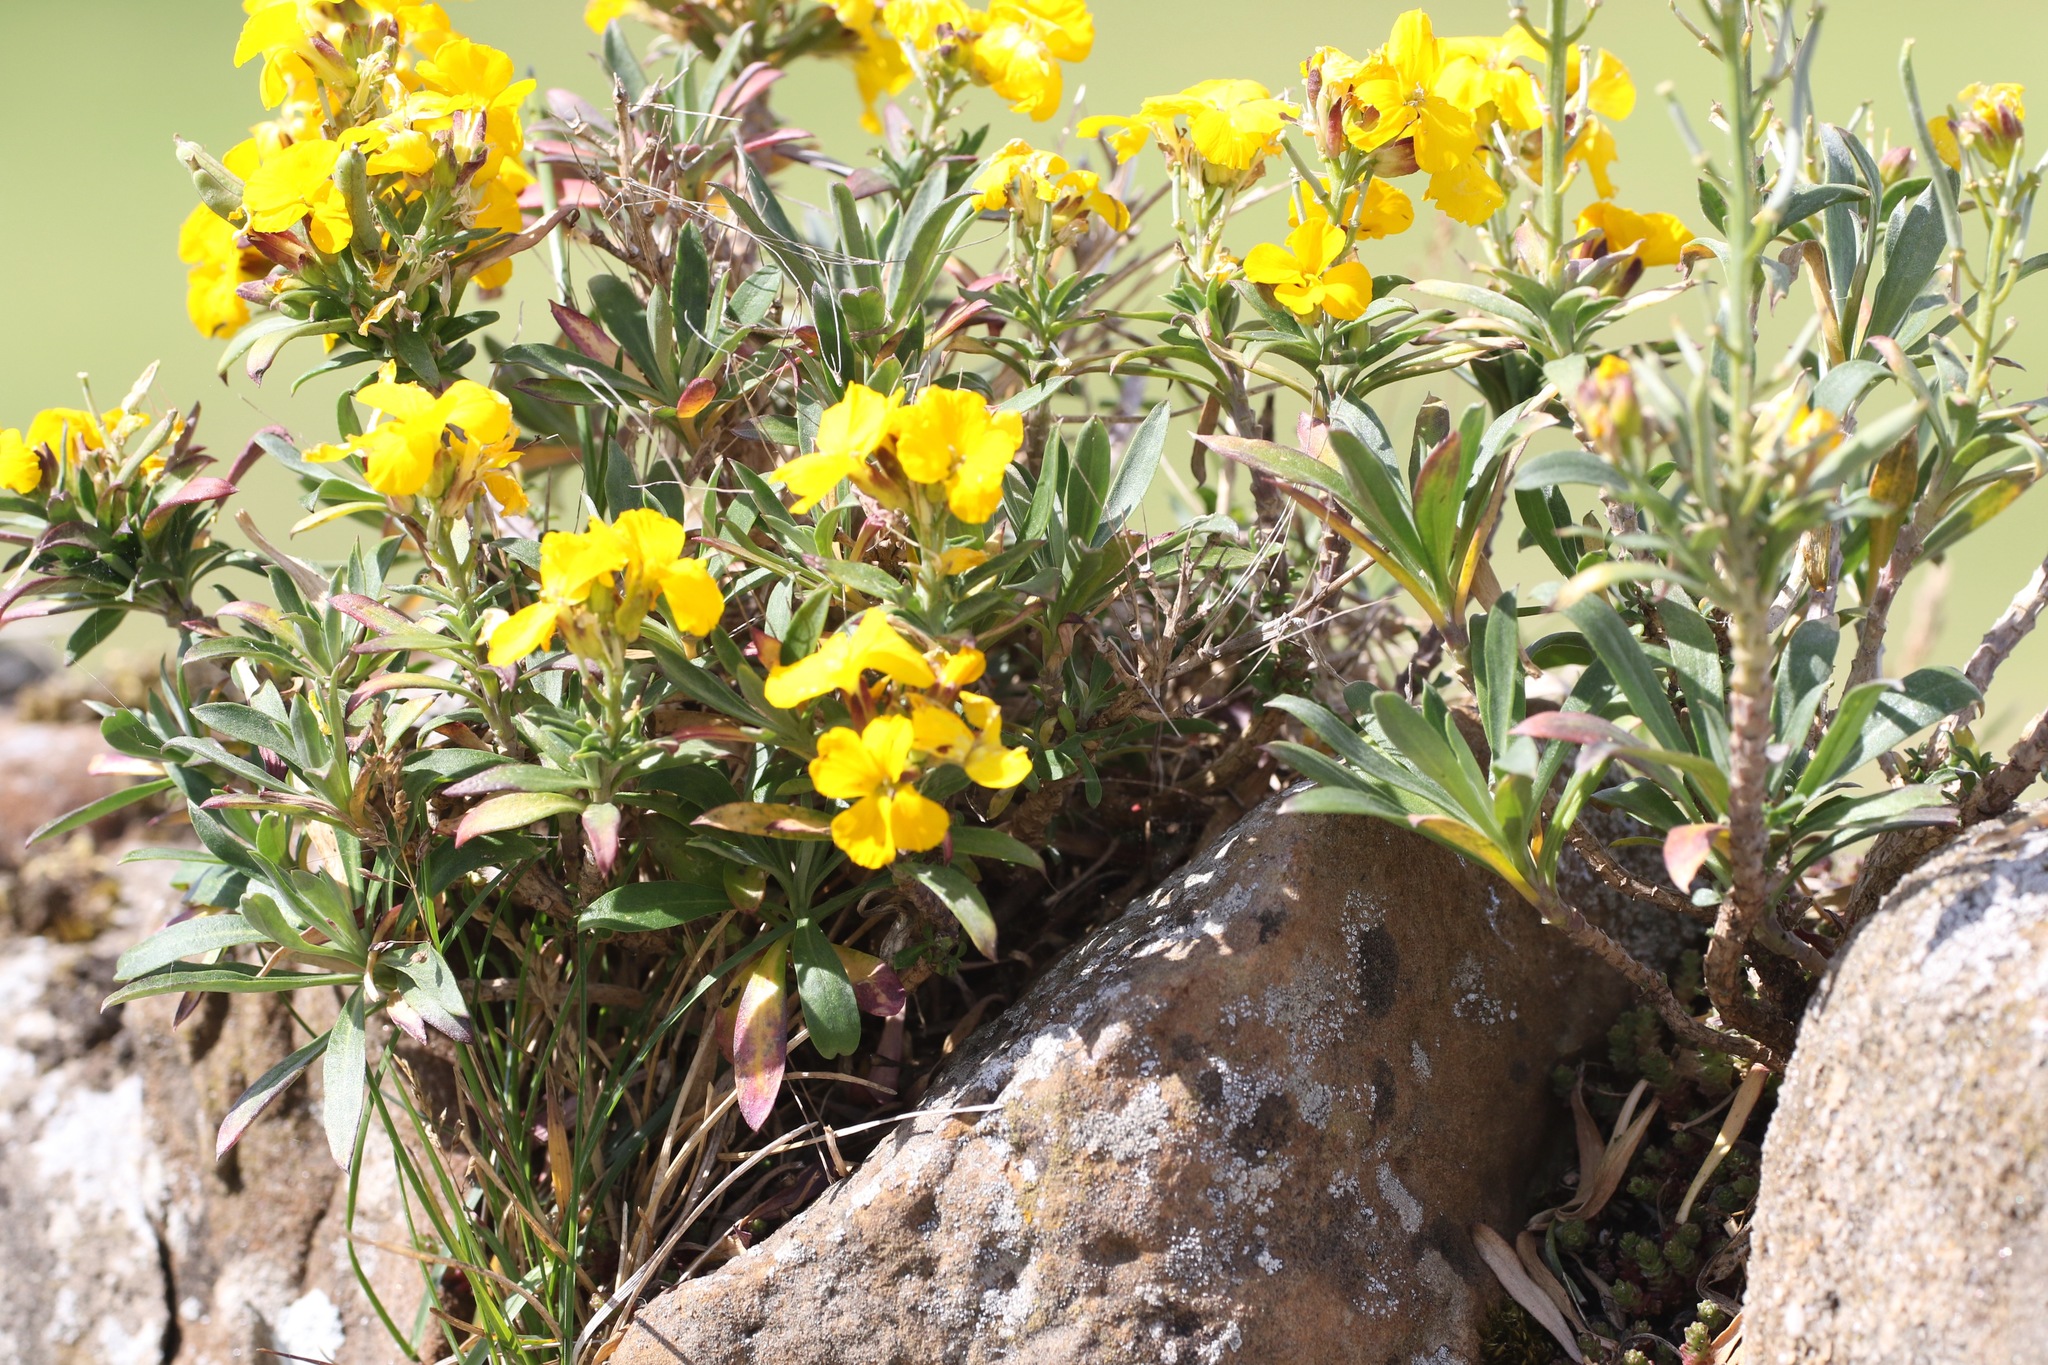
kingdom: Plantae
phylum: Tracheophyta
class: Magnoliopsida
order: Brassicales
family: Brassicaceae
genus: Erysimum
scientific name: Erysimum cheiri
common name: Wallflower
